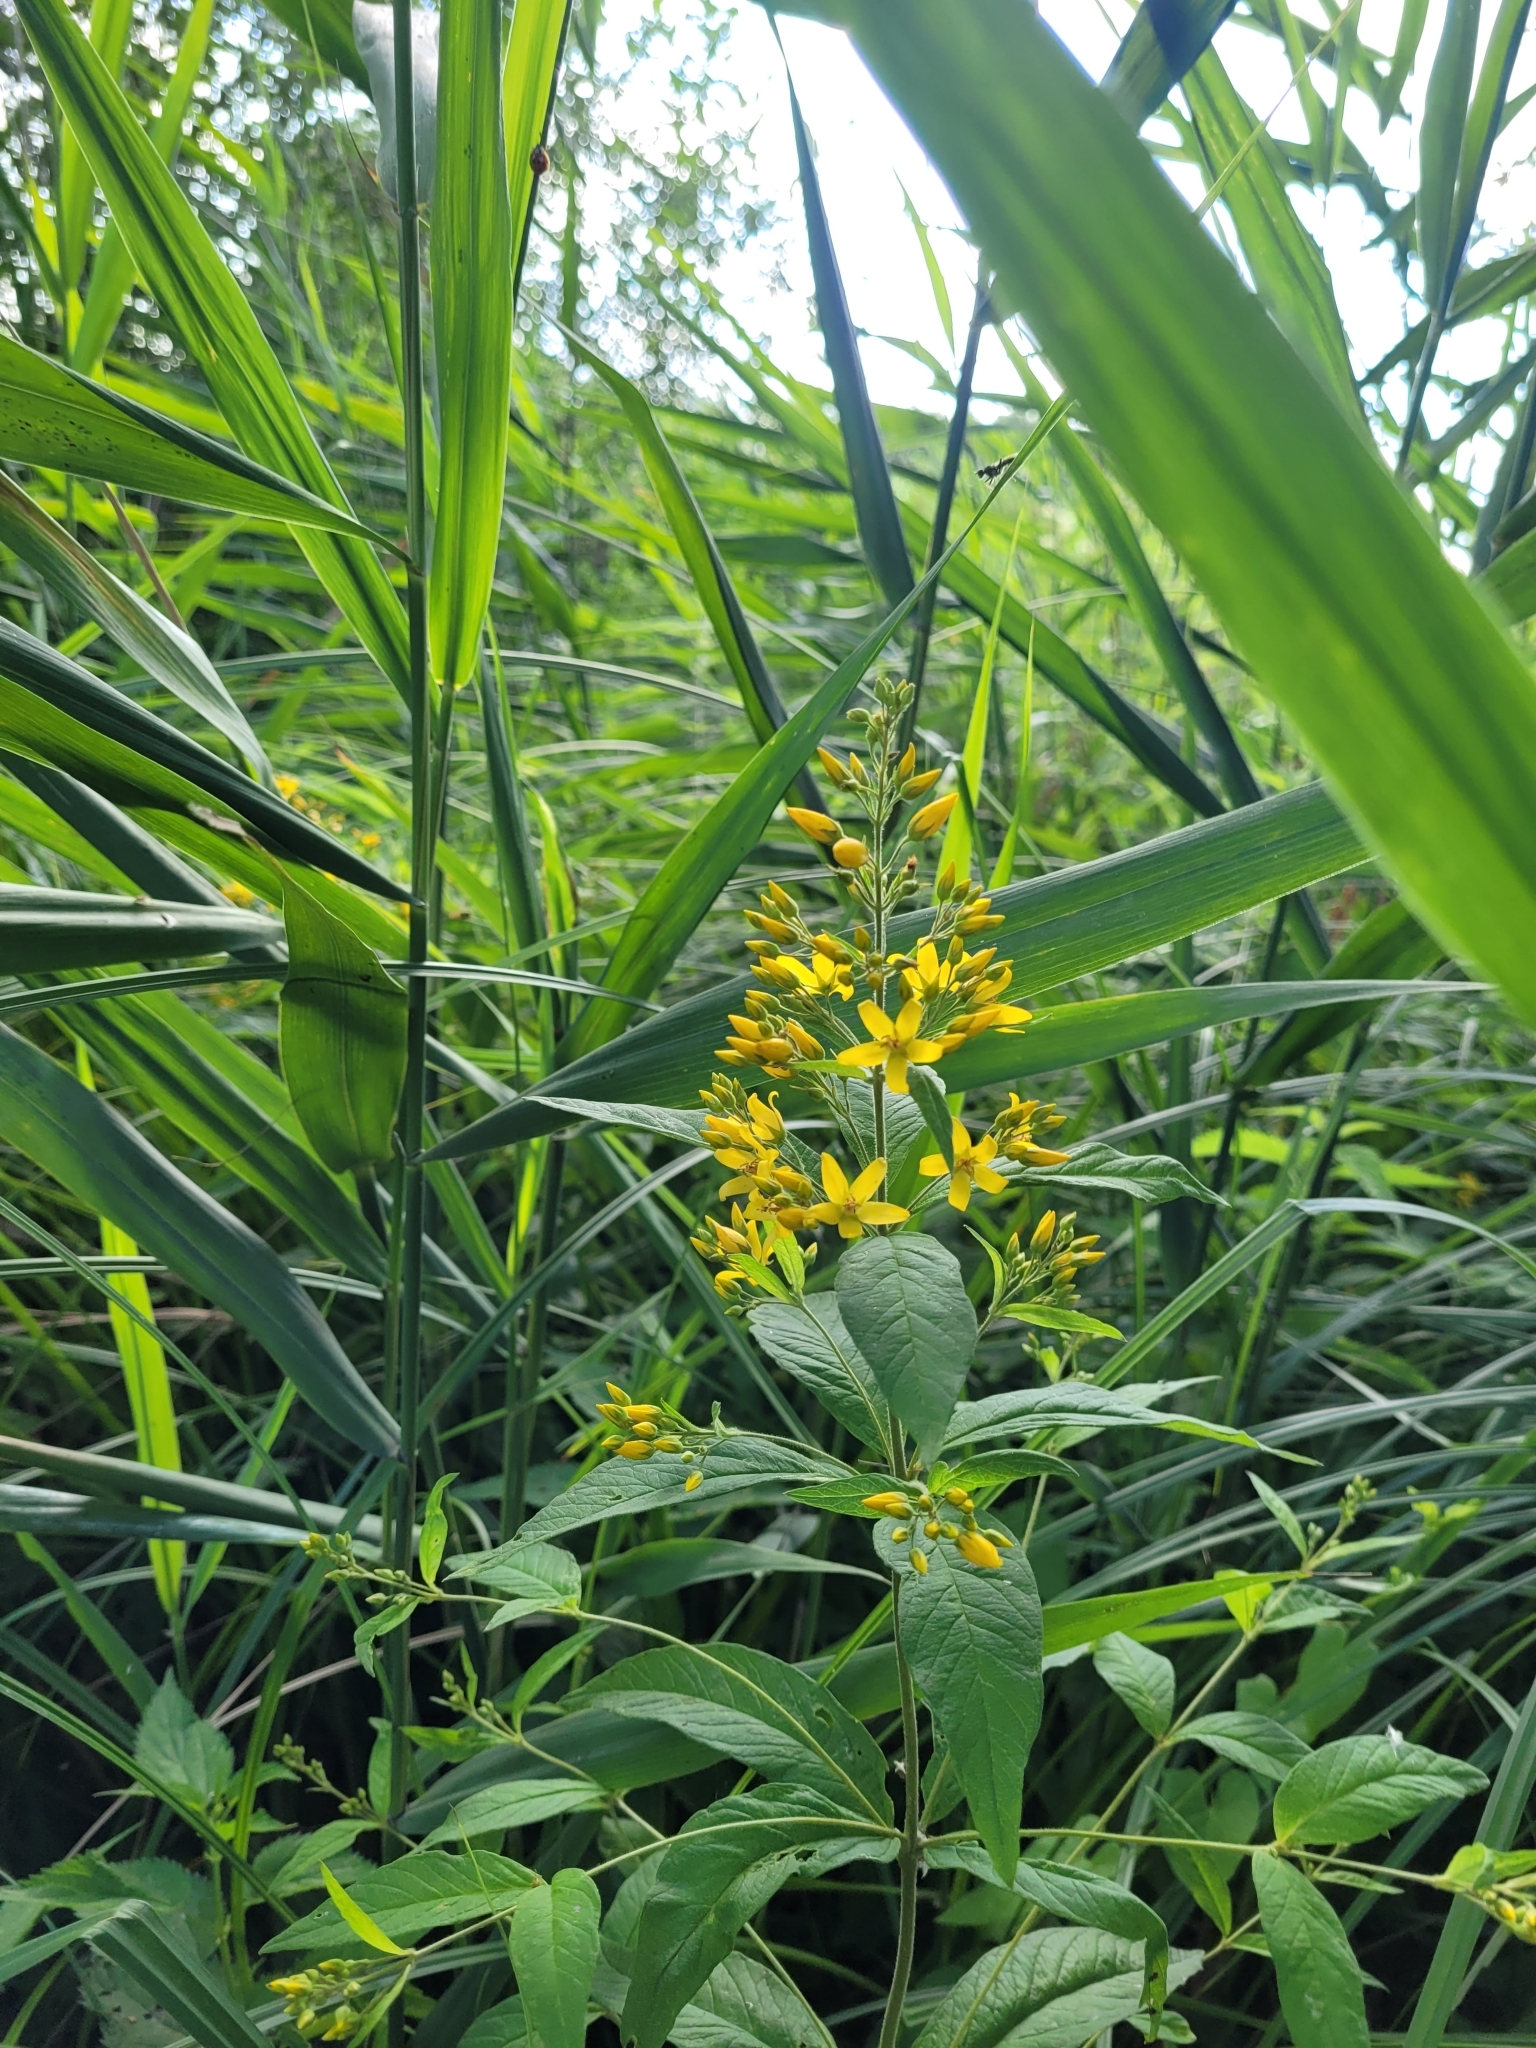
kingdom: Plantae
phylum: Tracheophyta
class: Magnoliopsida
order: Ericales
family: Primulaceae
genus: Lysimachia
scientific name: Lysimachia vulgaris
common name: Yellow loosestrife
